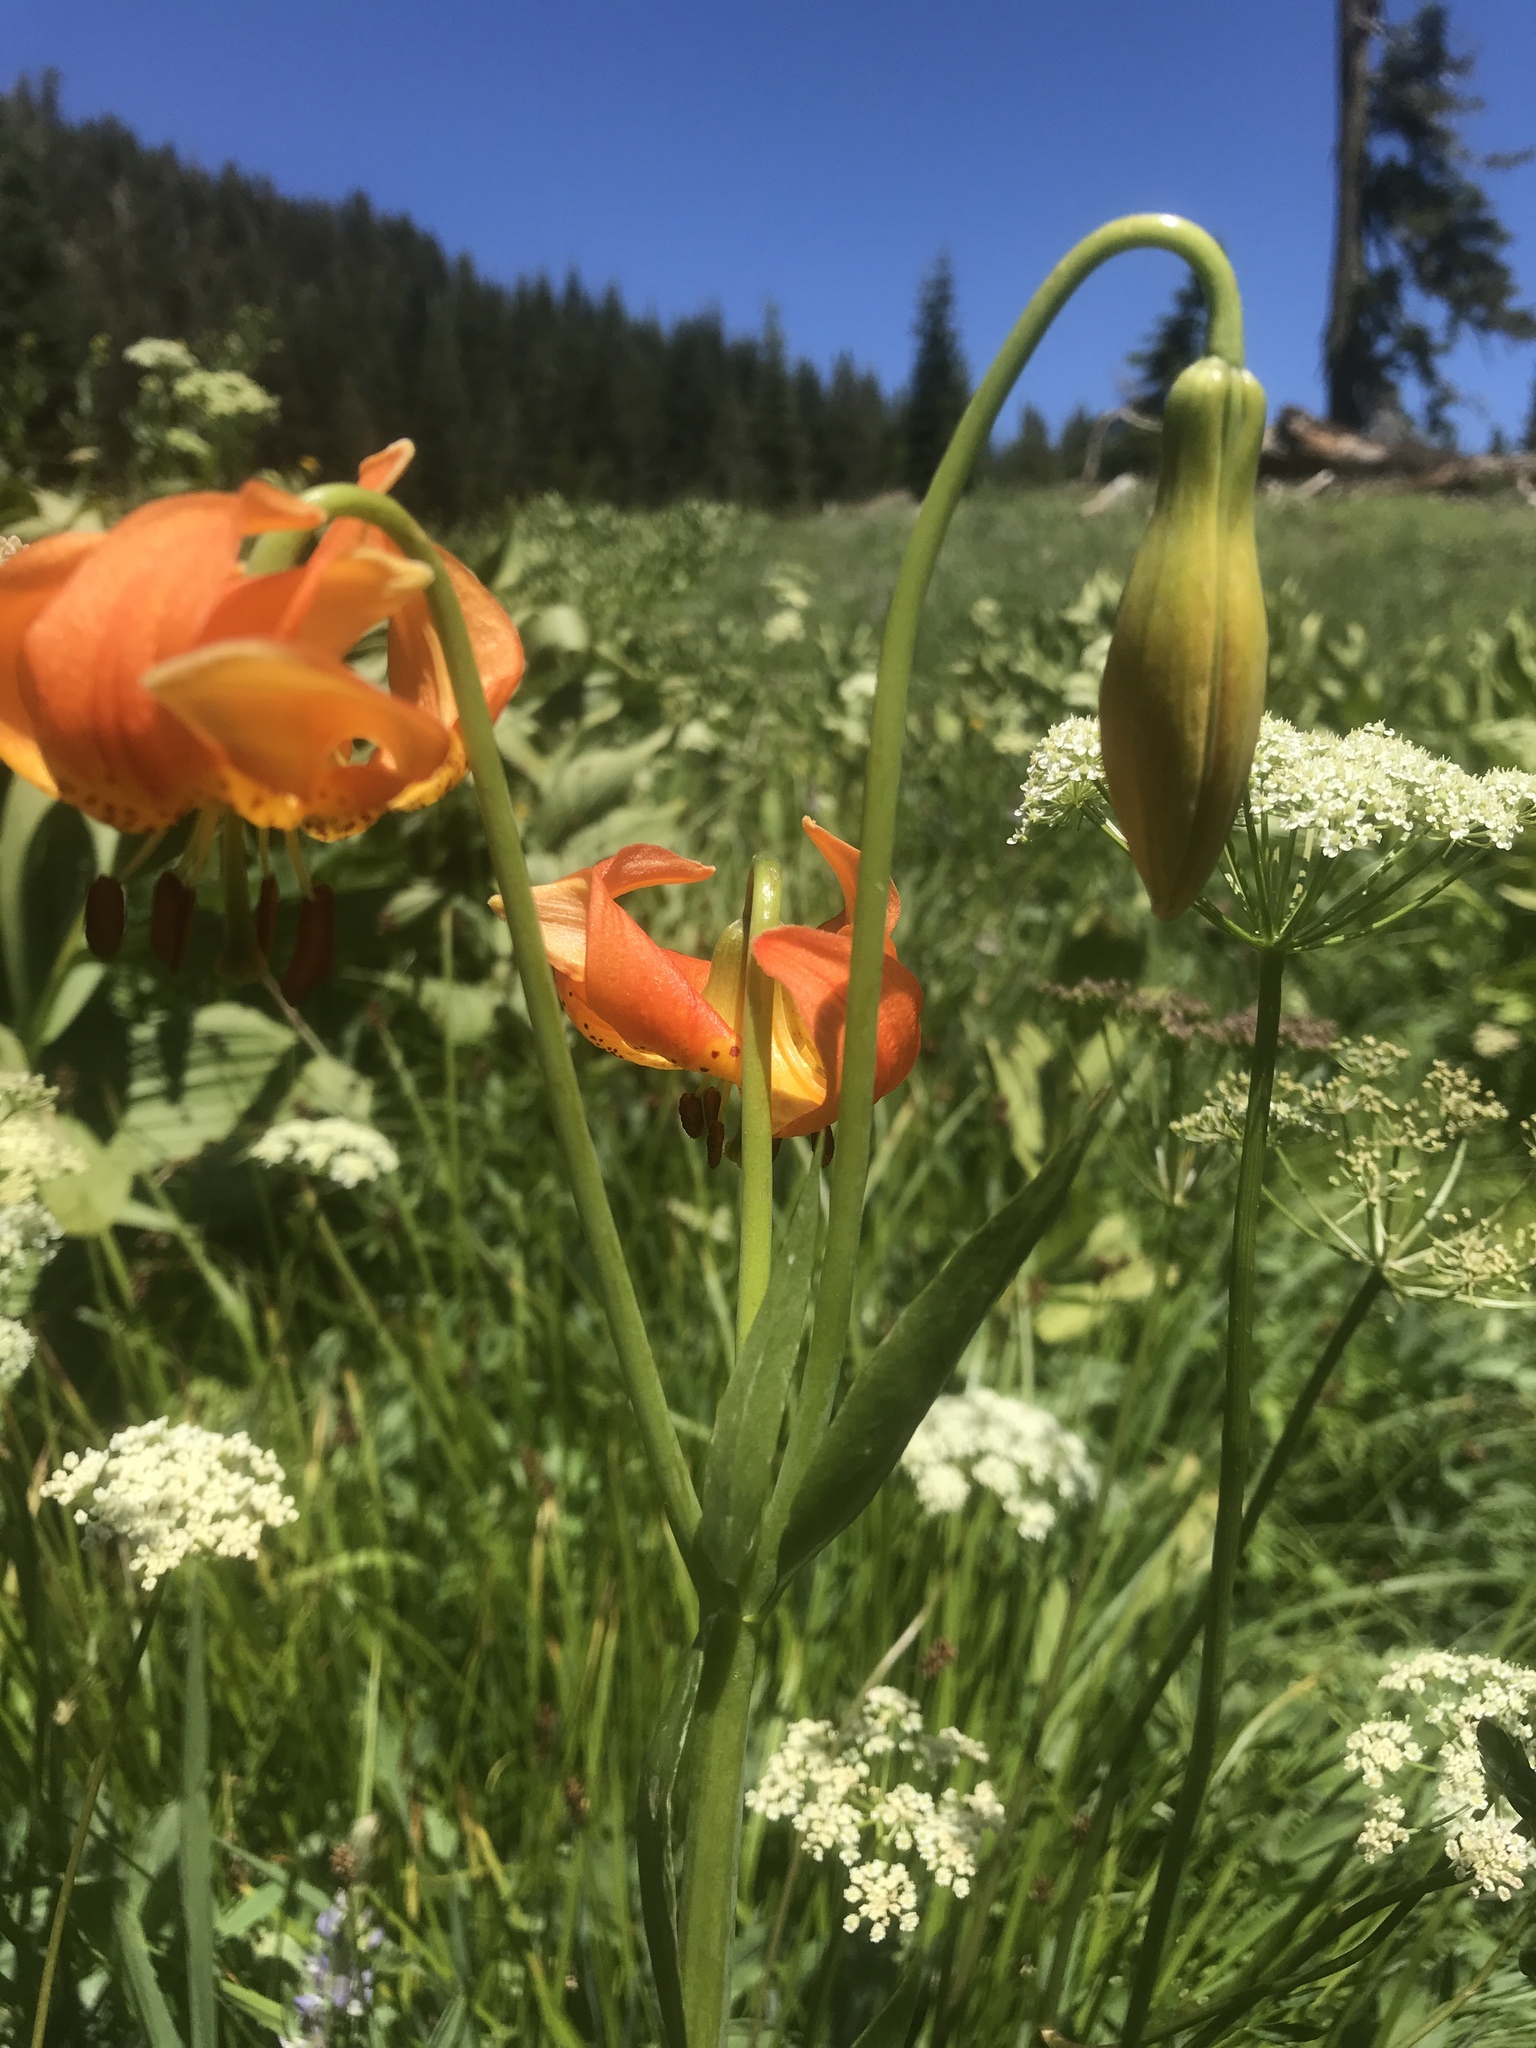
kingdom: Plantae
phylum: Tracheophyta
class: Liliopsida
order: Liliales
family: Liliaceae
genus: Lilium
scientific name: Lilium pardalinum
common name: Panther lily
